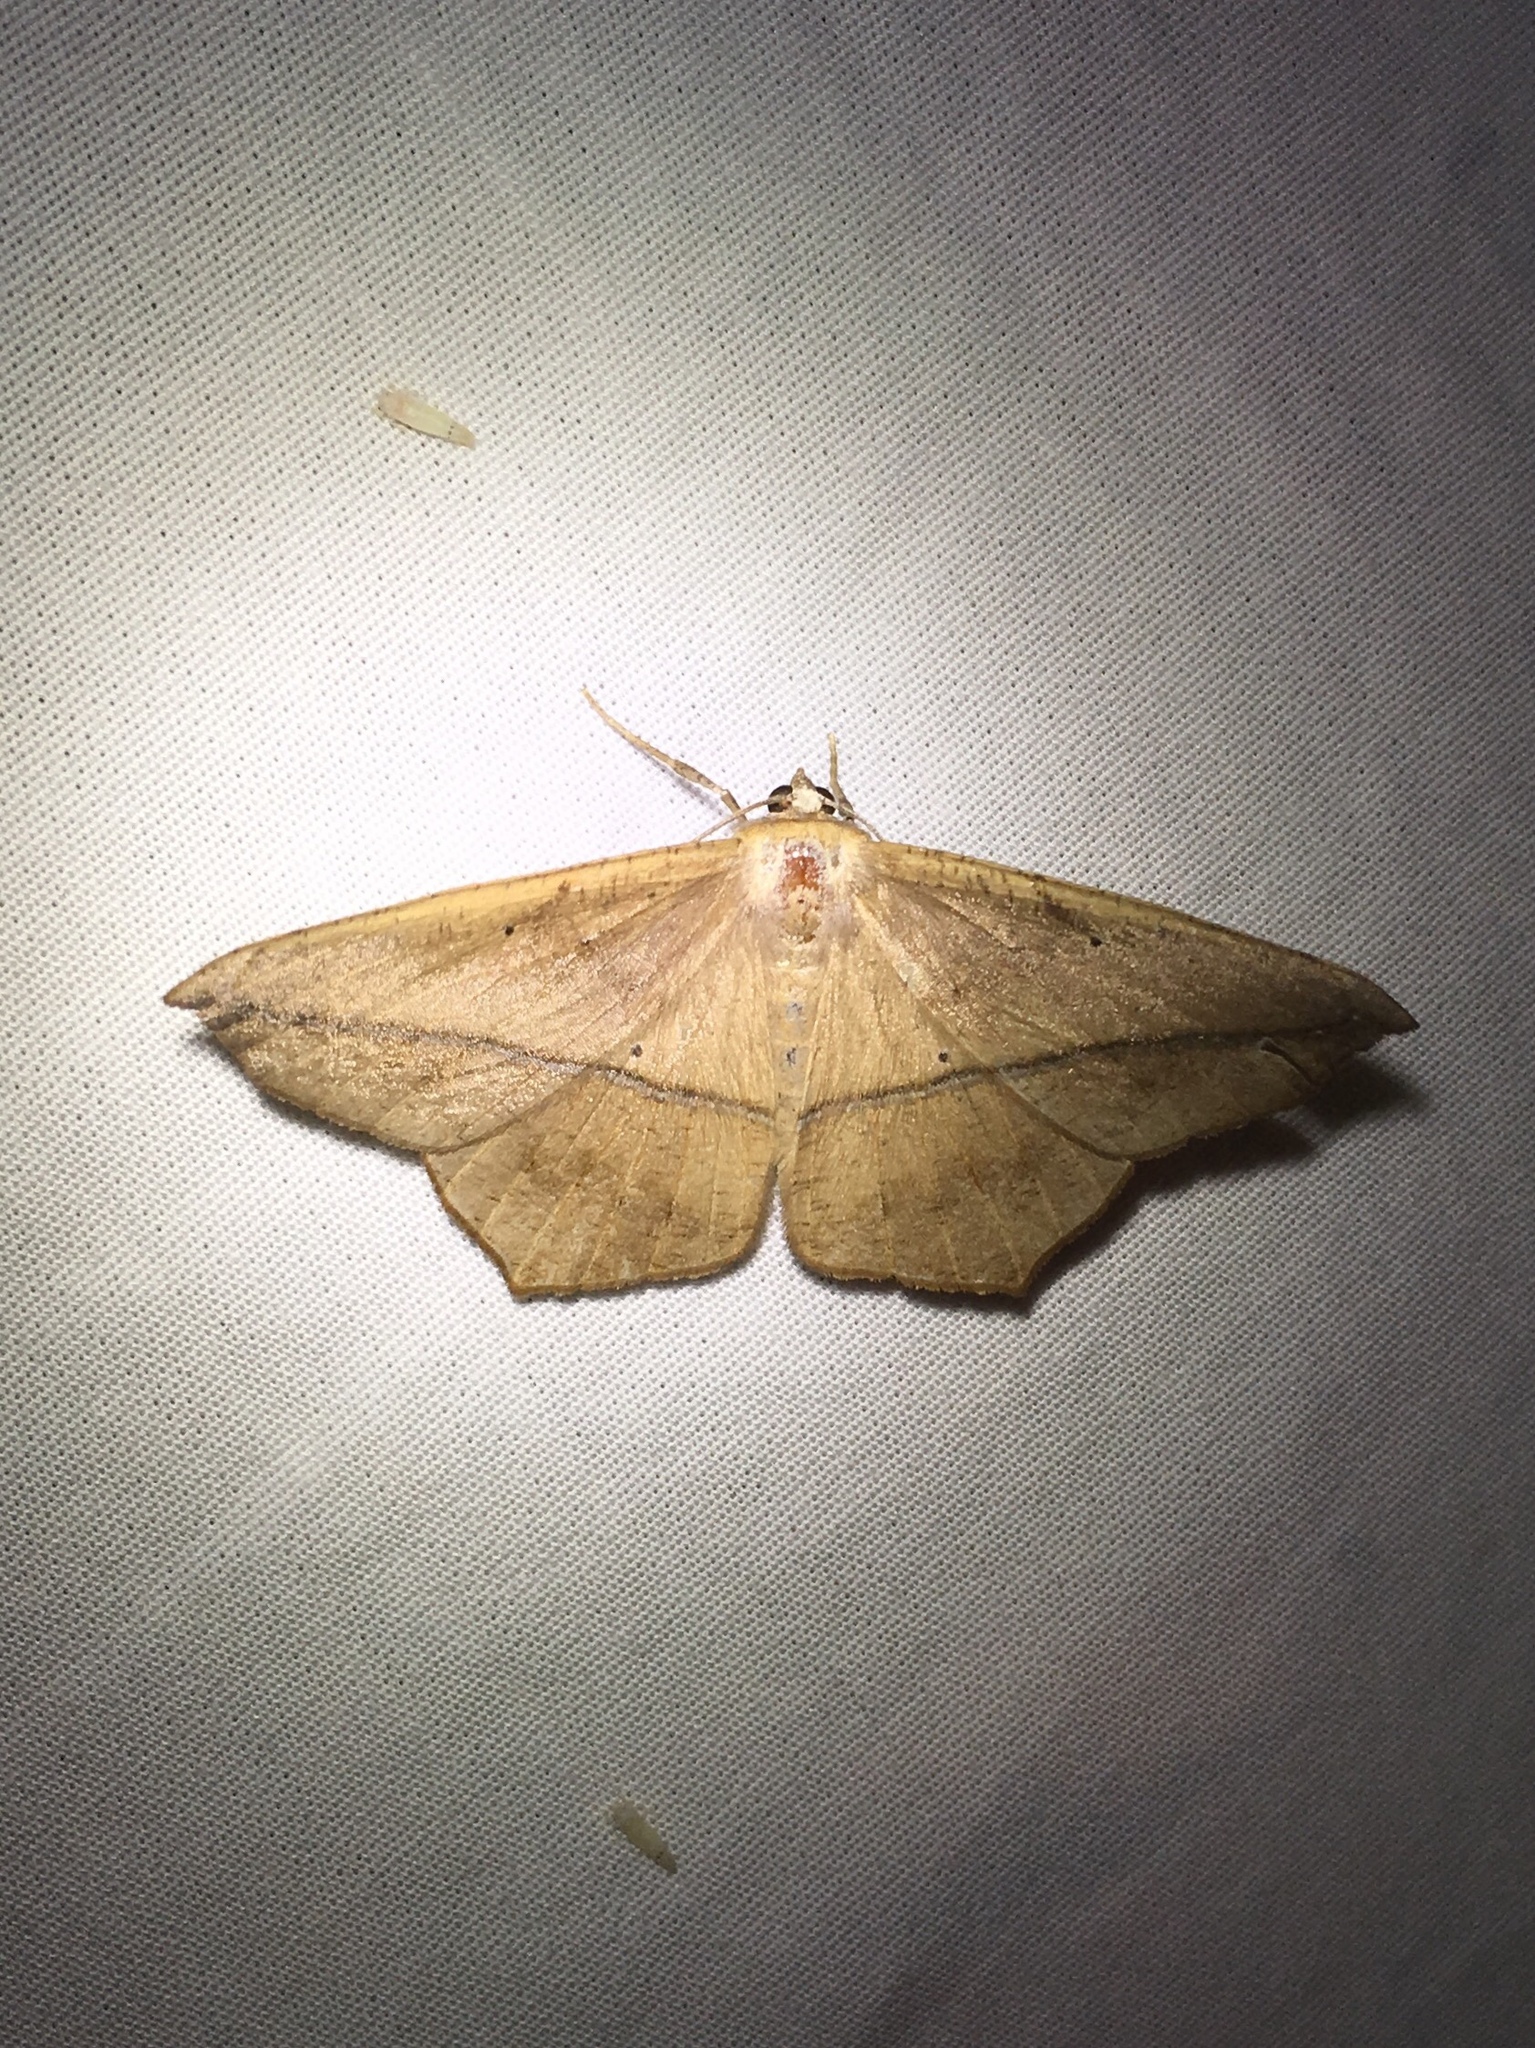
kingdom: Animalia
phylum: Arthropoda
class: Insecta
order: Lepidoptera
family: Geometridae
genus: Prochoerodes
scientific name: Prochoerodes lineola
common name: Large maple spanworm
